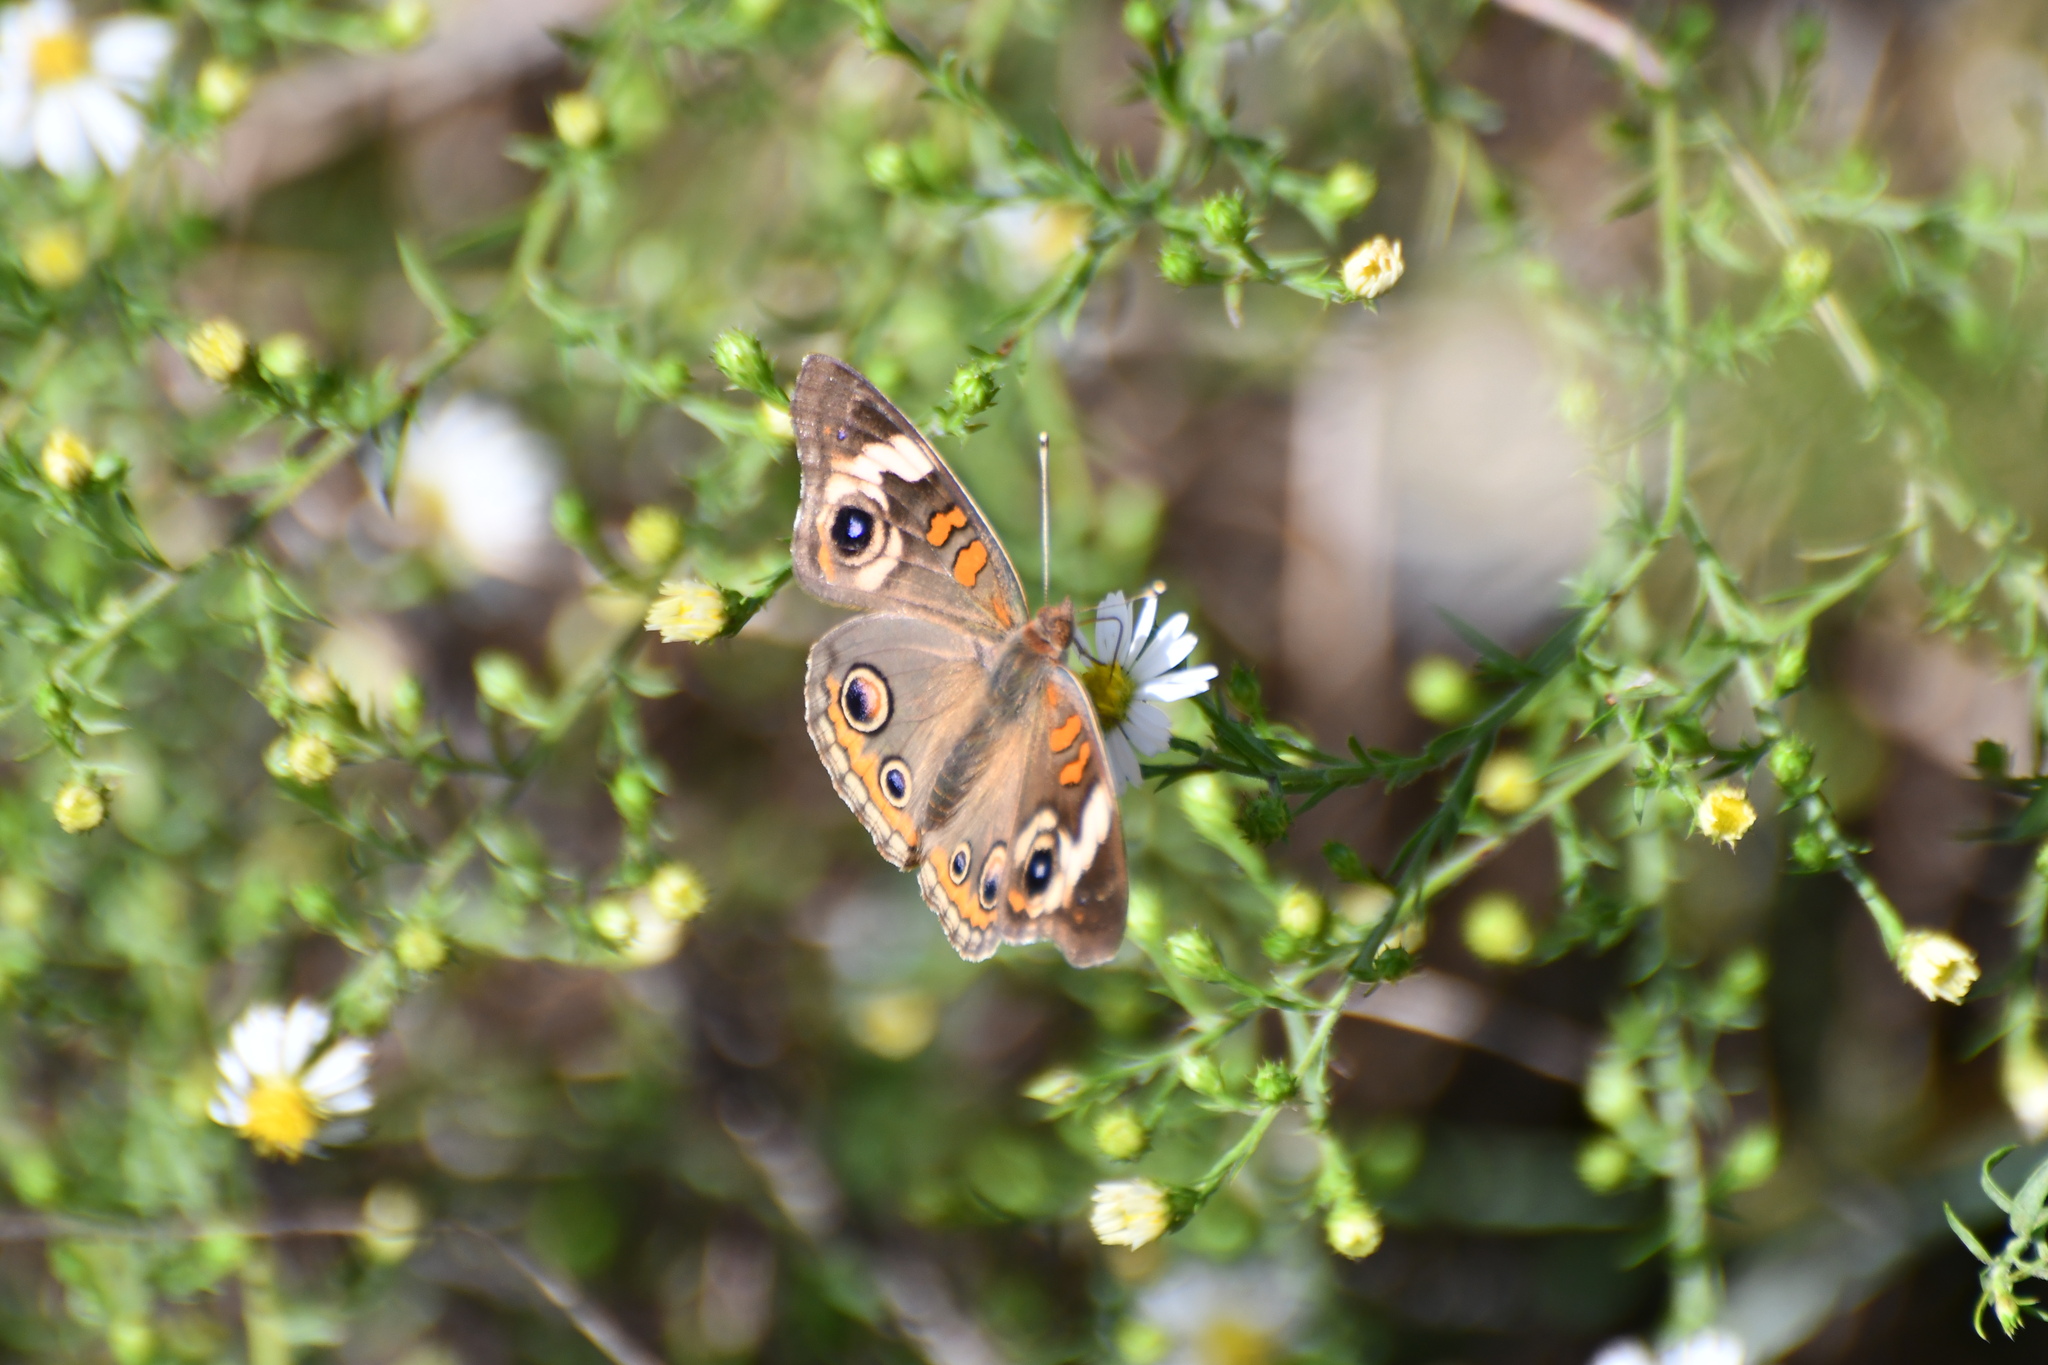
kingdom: Animalia
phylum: Arthropoda
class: Insecta
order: Lepidoptera
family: Nymphalidae
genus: Junonia
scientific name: Junonia coenia
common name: Common buckeye
